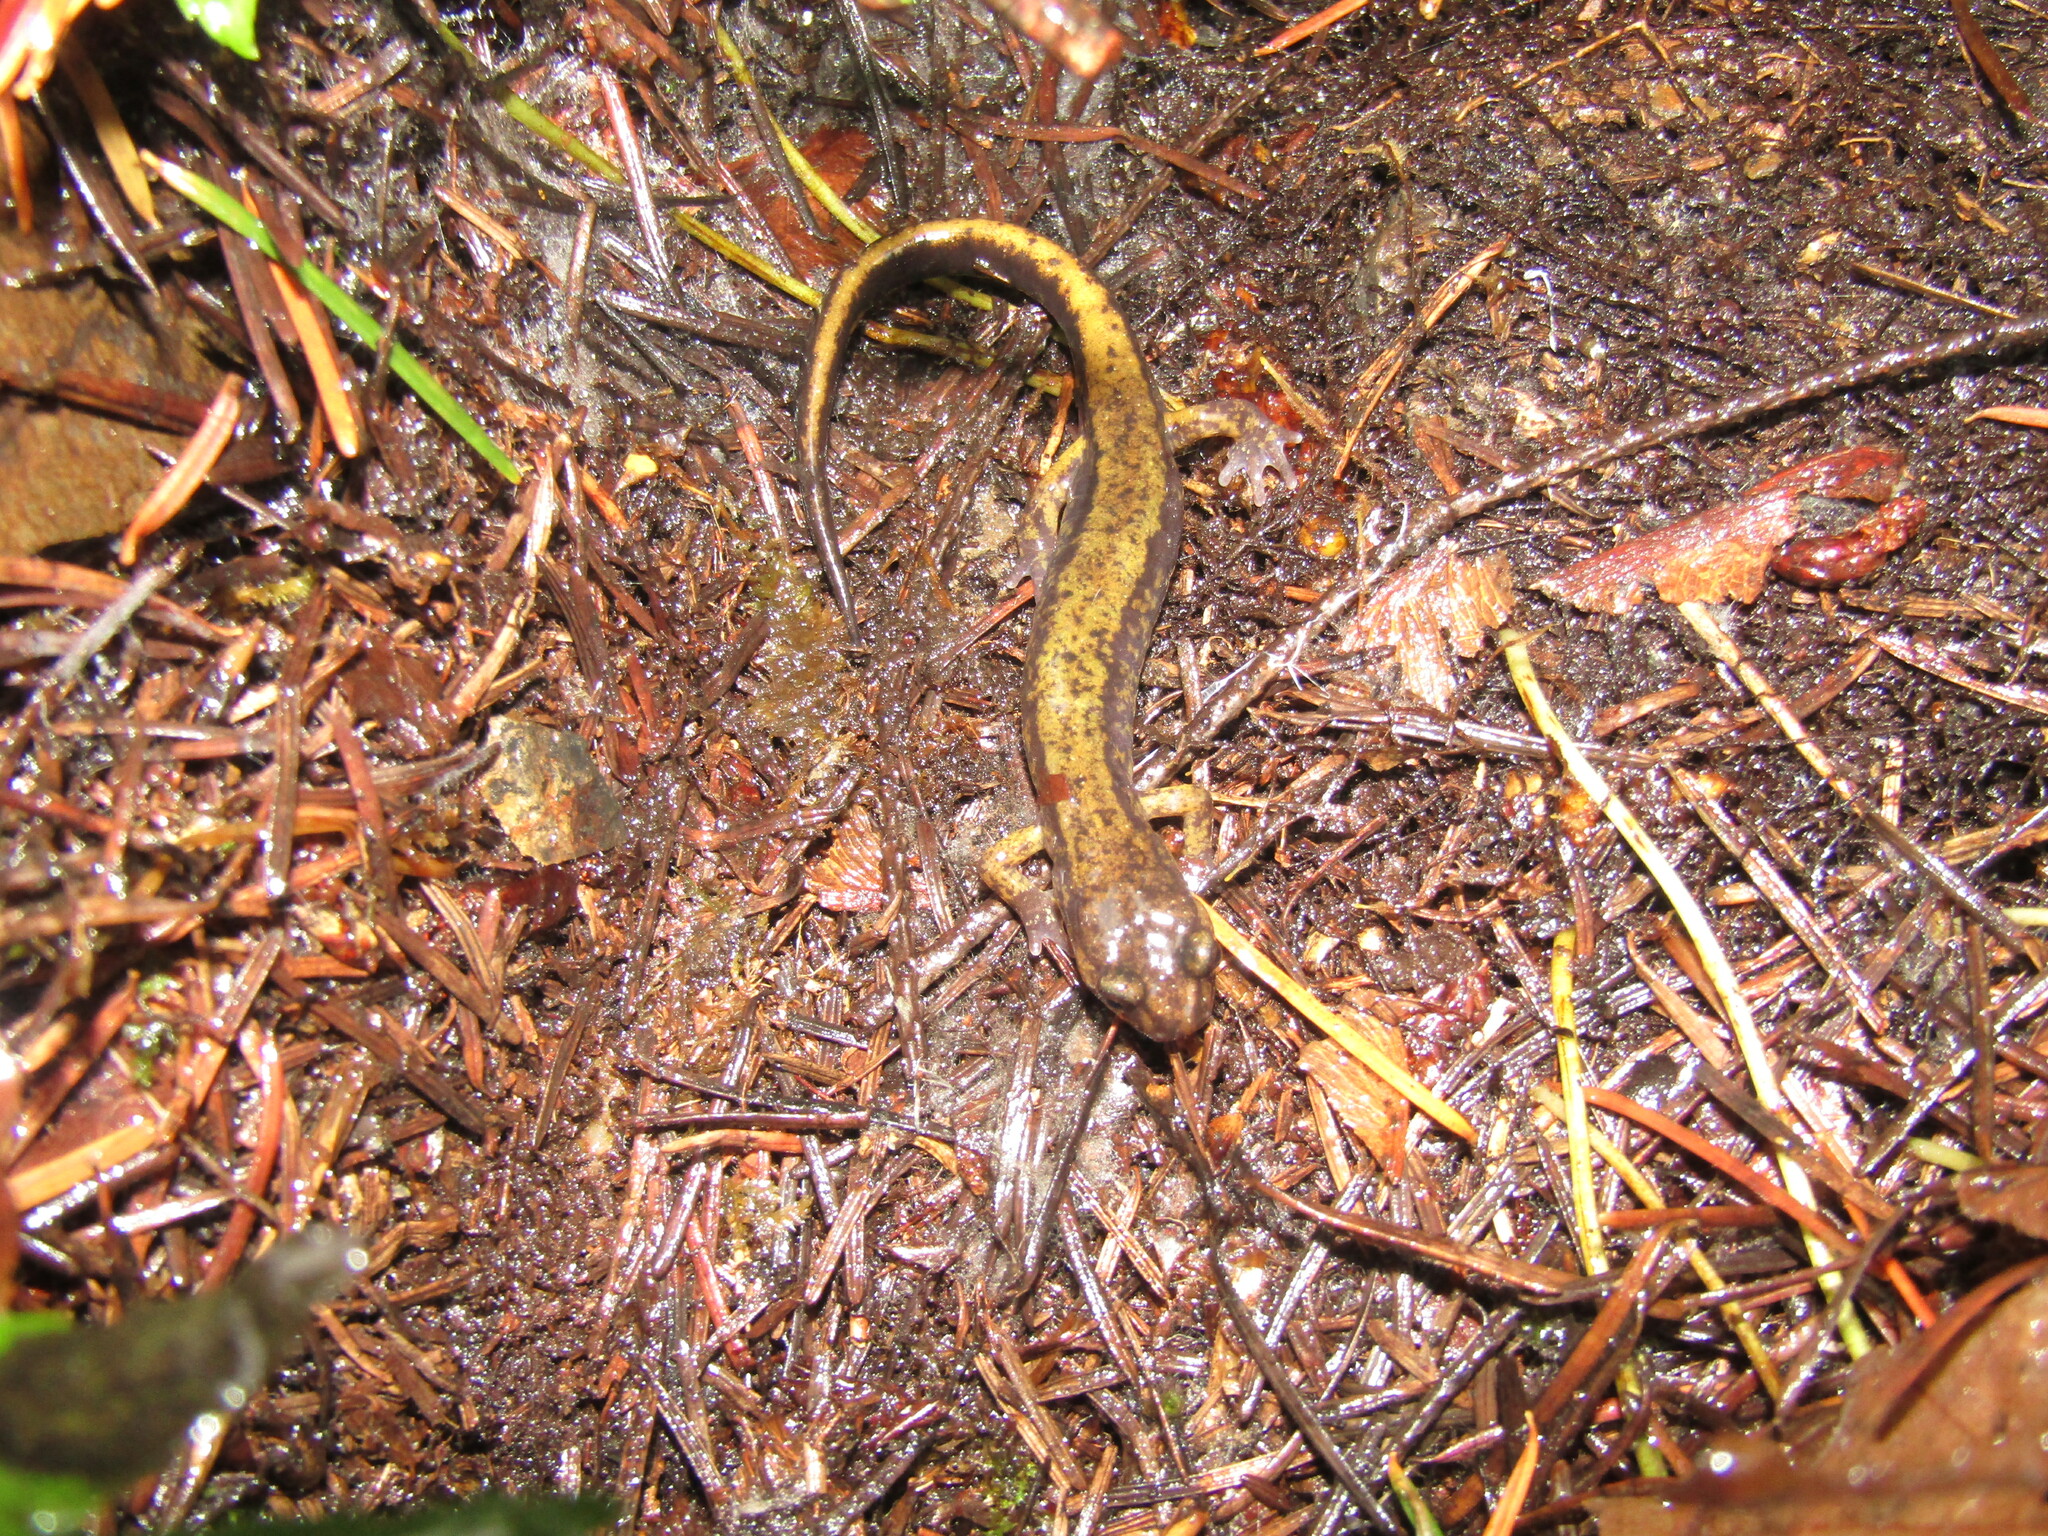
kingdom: Animalia
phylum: Chordata
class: Amphibia
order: Caudata
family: Plethodontidae
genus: Plethodon
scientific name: Plethodon dunni
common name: Dunn's salamander
